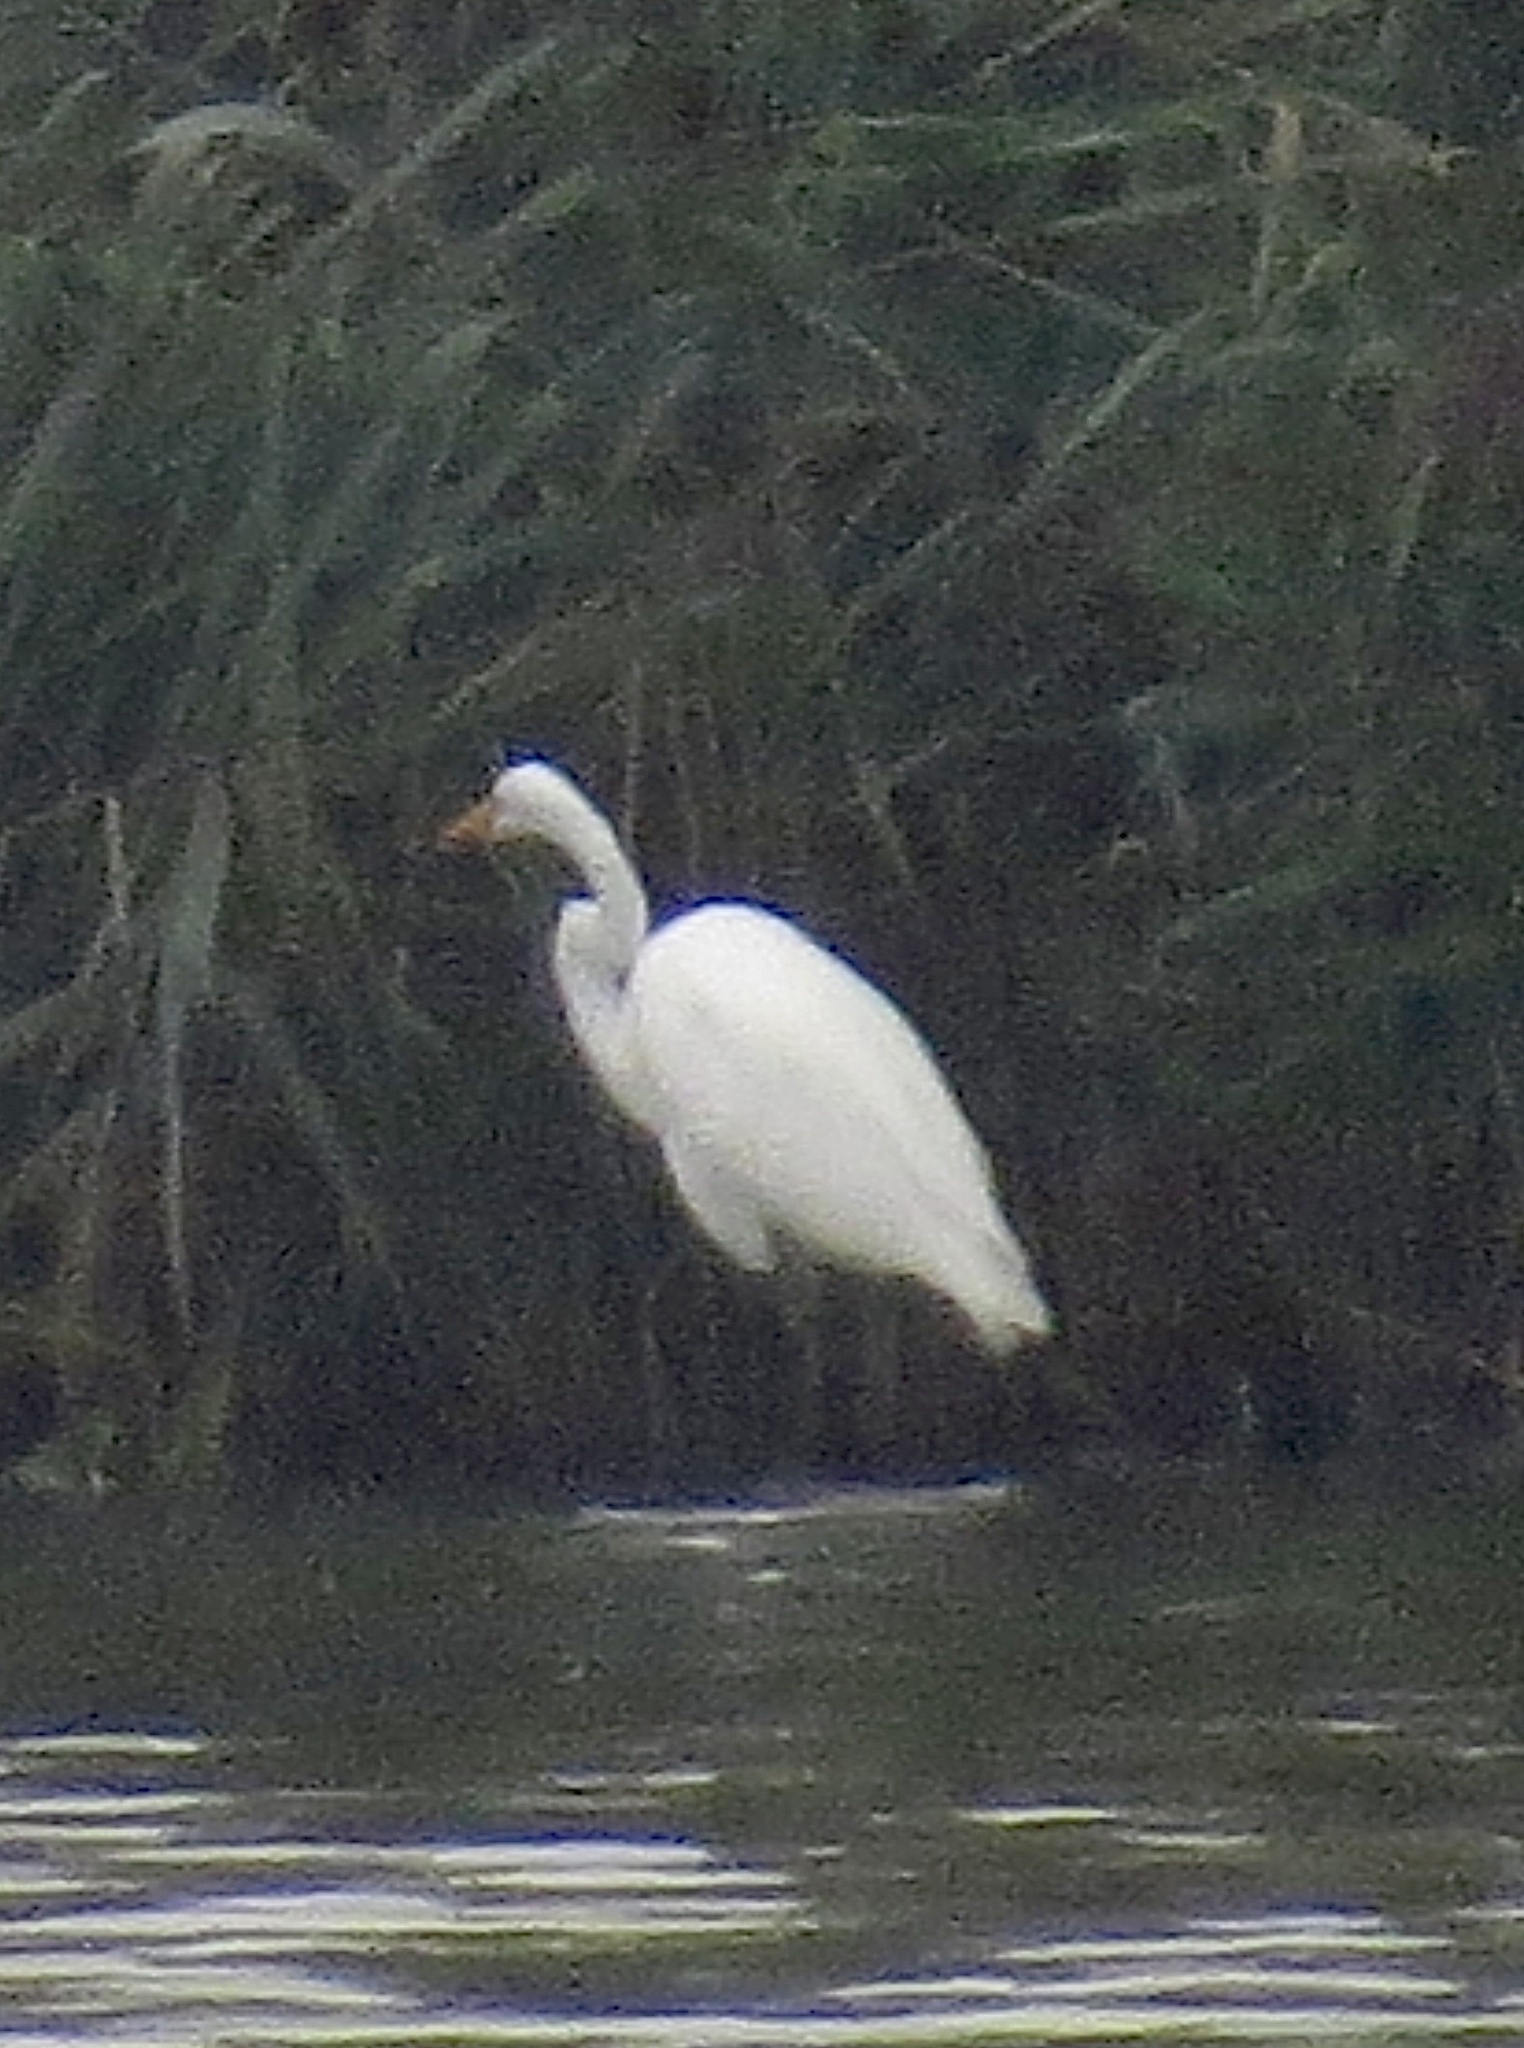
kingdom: Animalia
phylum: Chordata
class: Aves
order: Pelecaniformes
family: Ardeidae
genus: Ardea
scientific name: Ardea alba
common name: Great egret
